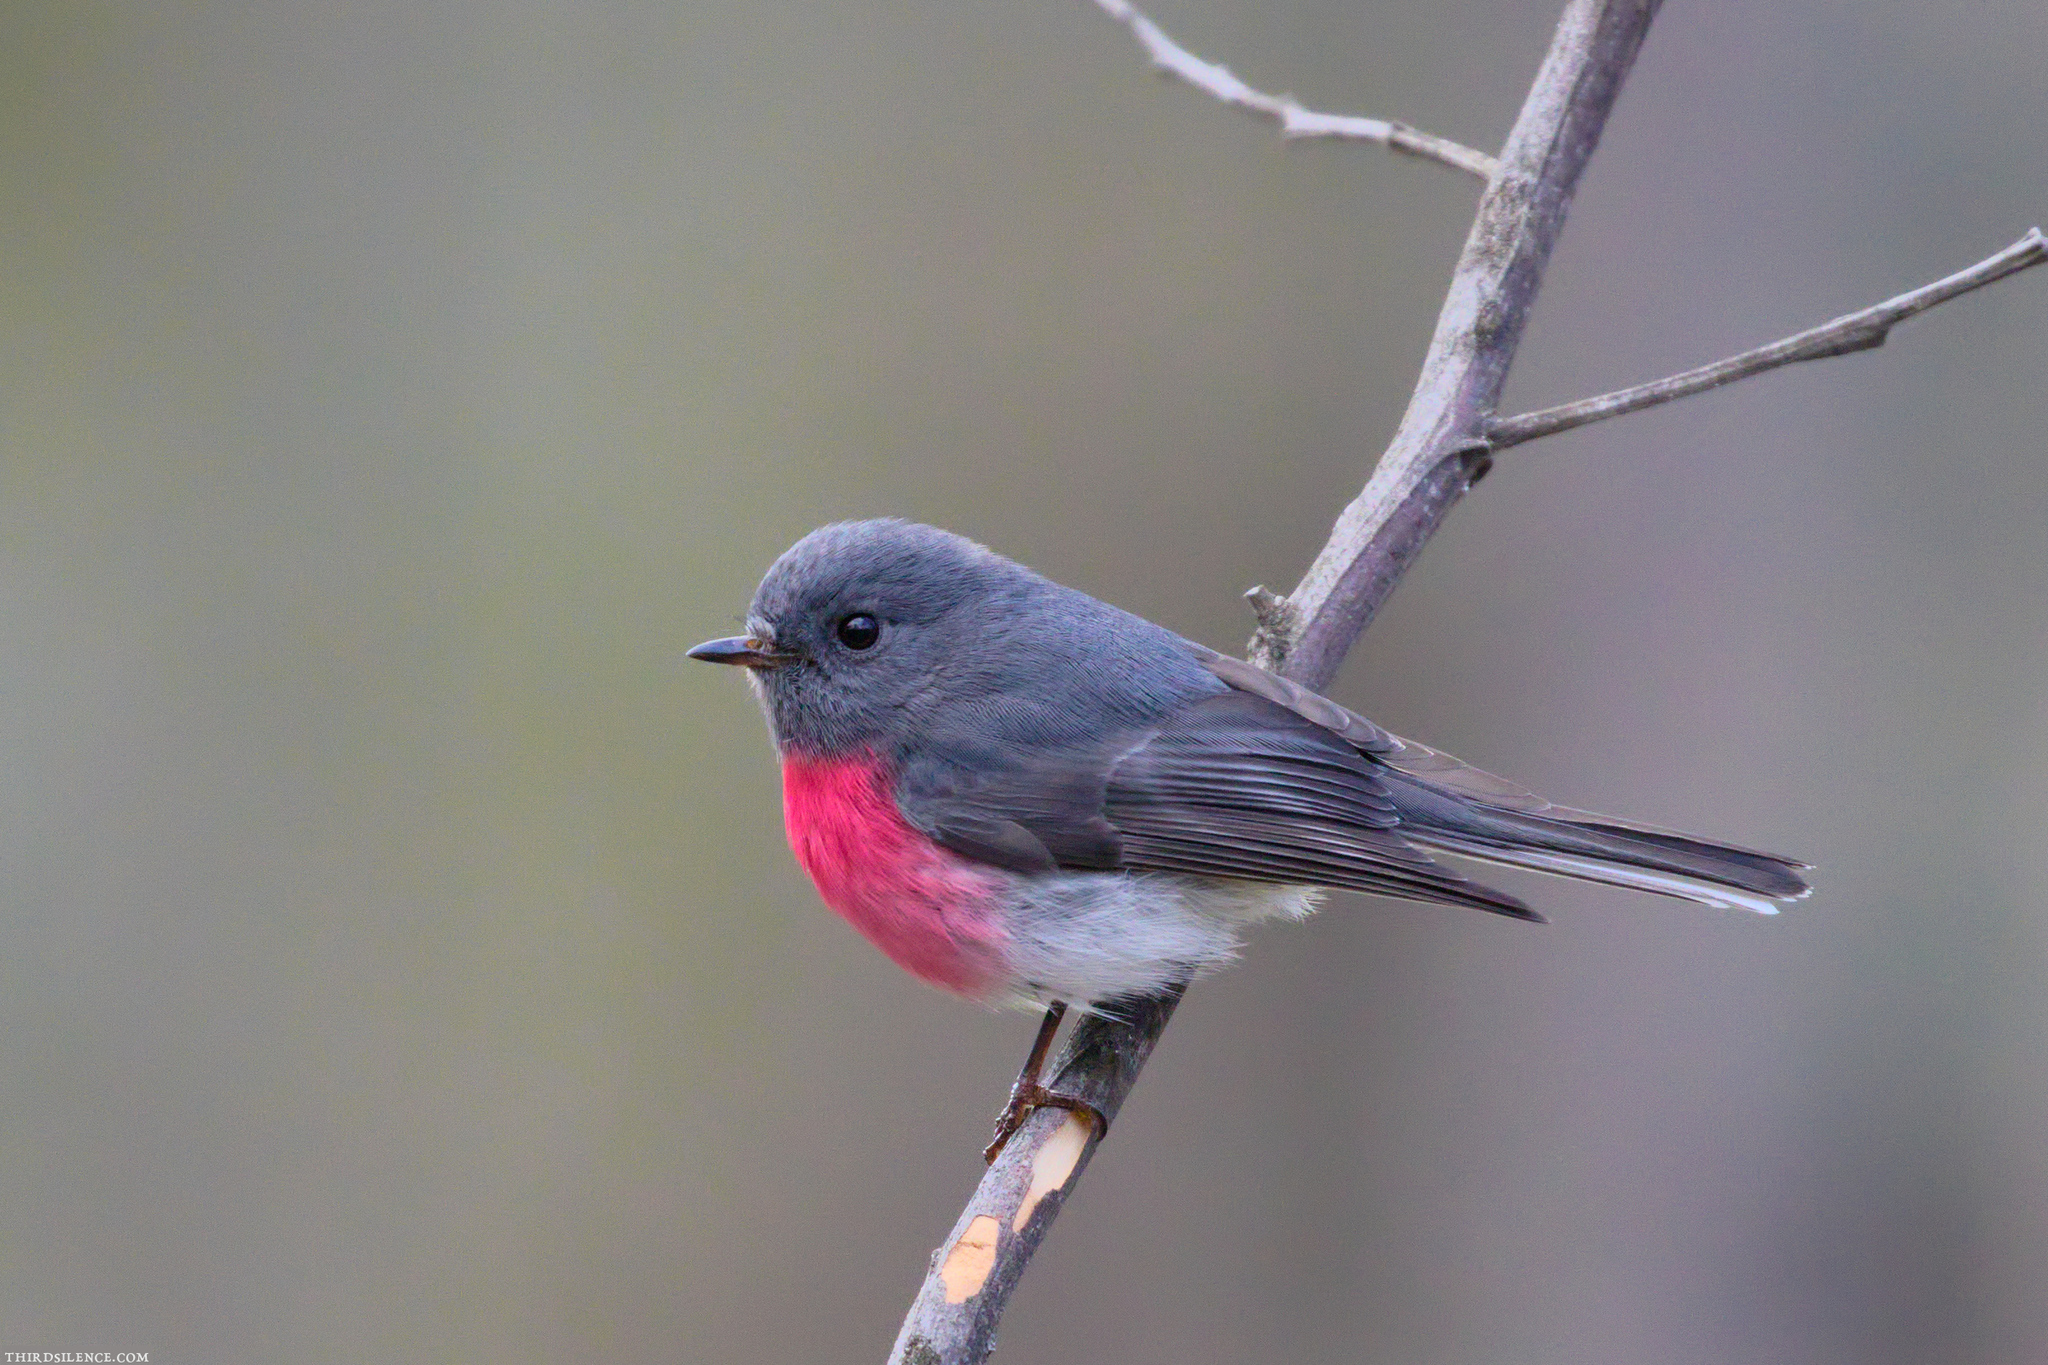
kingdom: Animalia
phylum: Chordata
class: Aves
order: Passeriformes
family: Petroicidae
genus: Petroica
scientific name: Petroica rosea
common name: Rose robin
